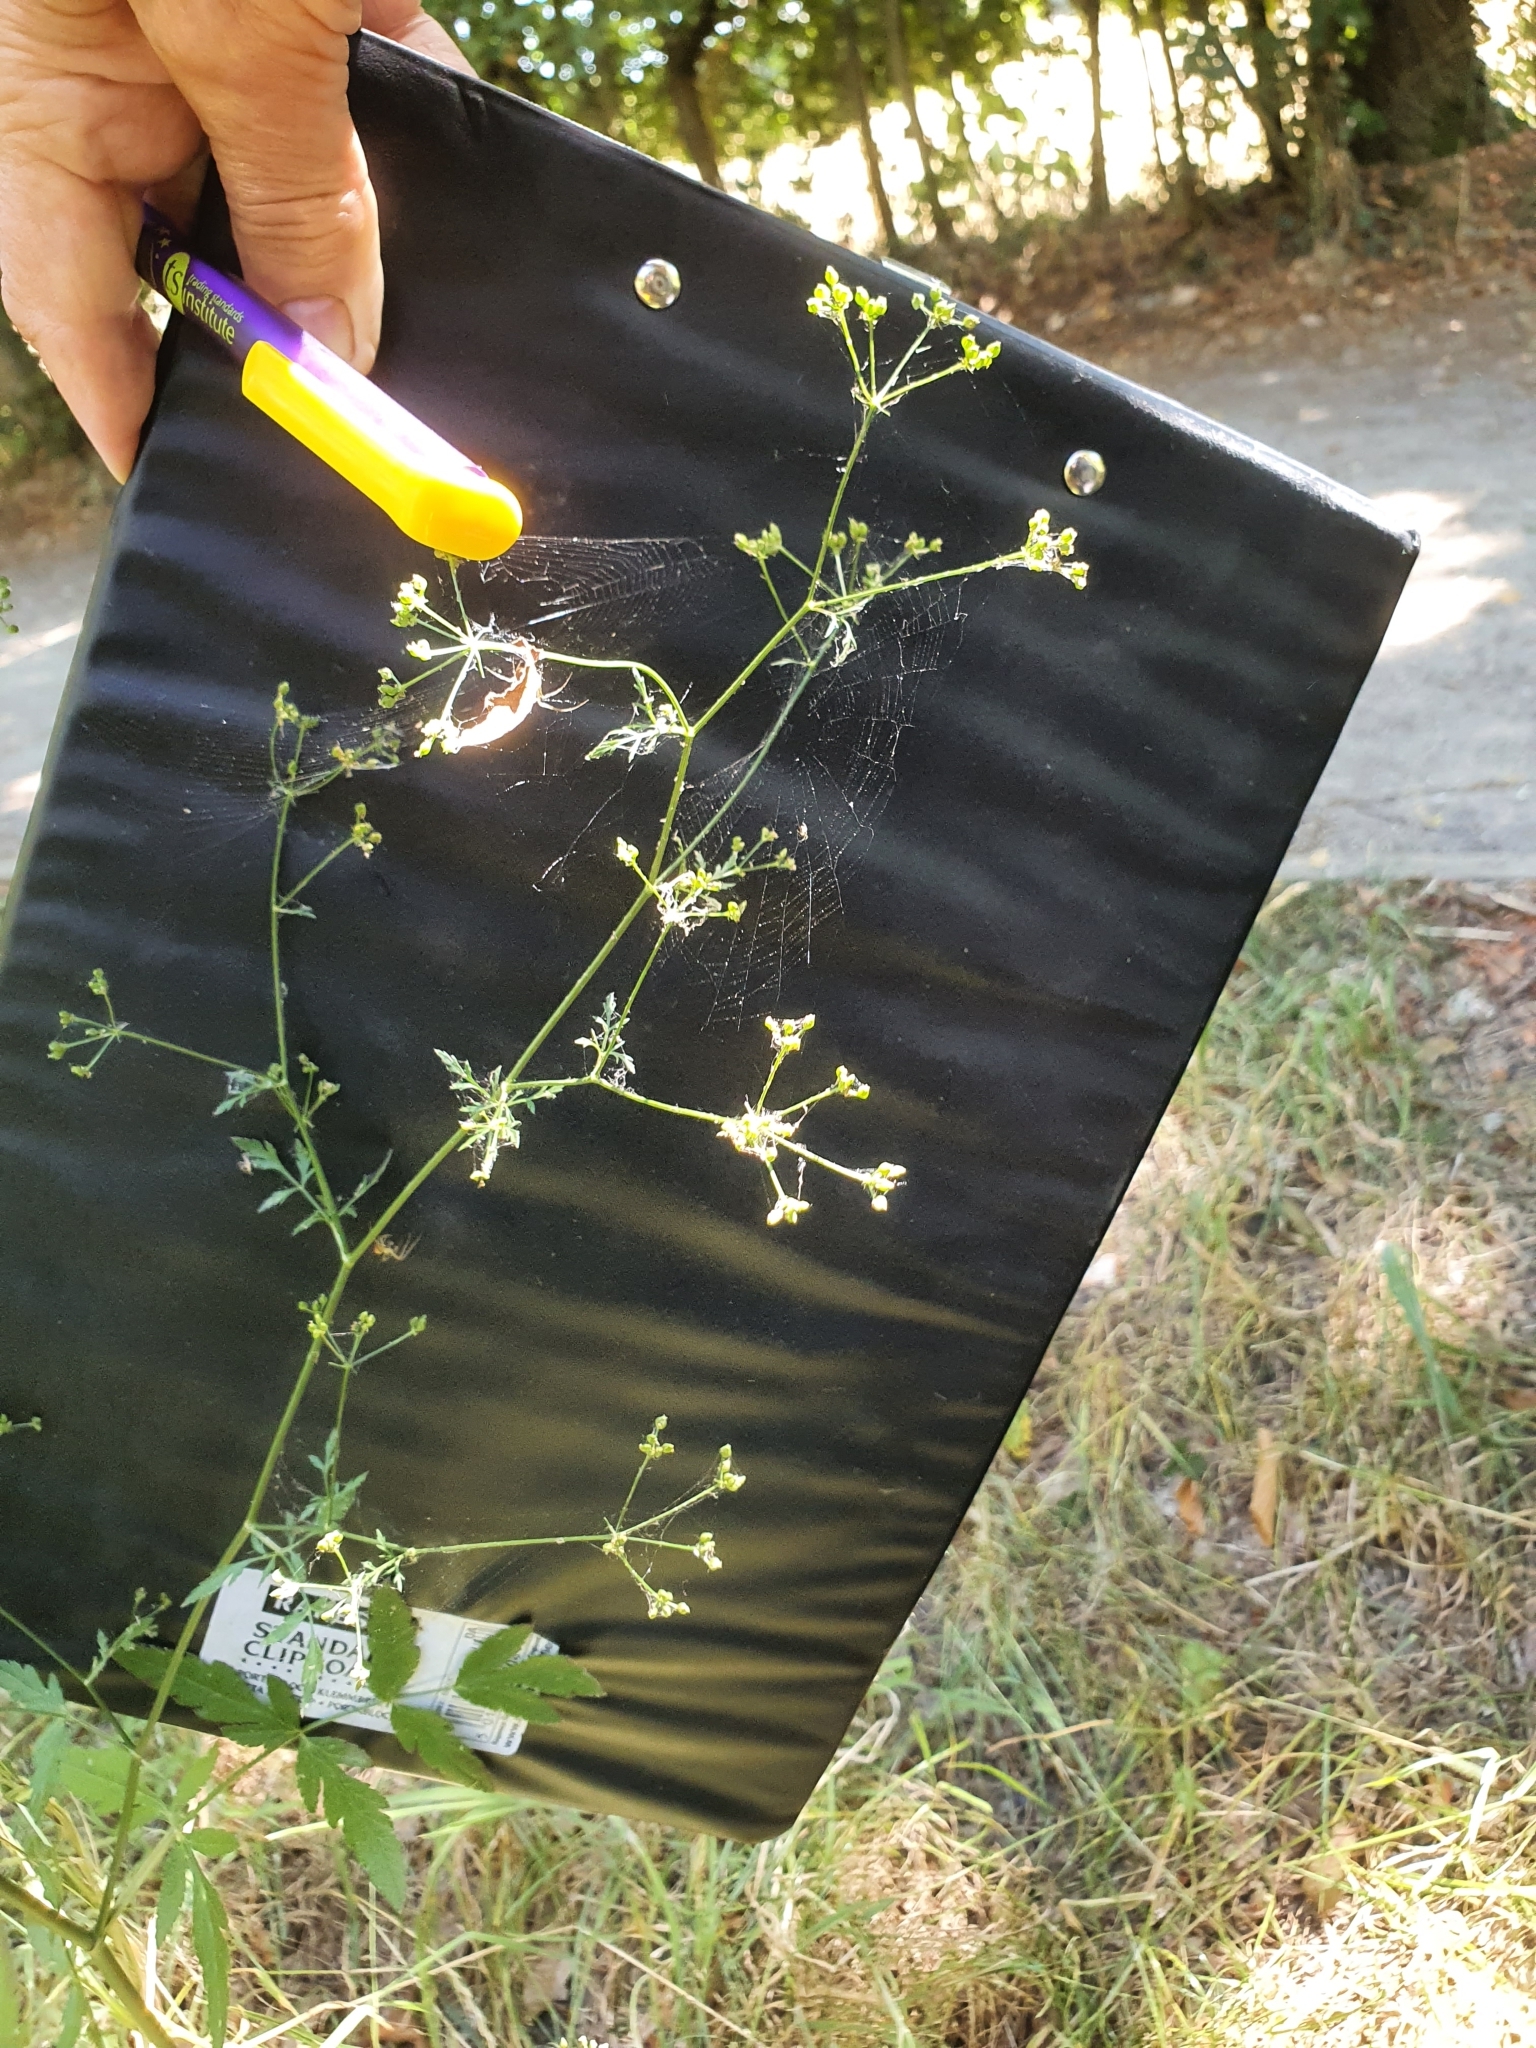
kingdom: Plantae
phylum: Tracheophyta
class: Magnoliopsida
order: Apiales
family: Apiaceae
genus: Sison
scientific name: Sison amomum
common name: Stone-parsley
